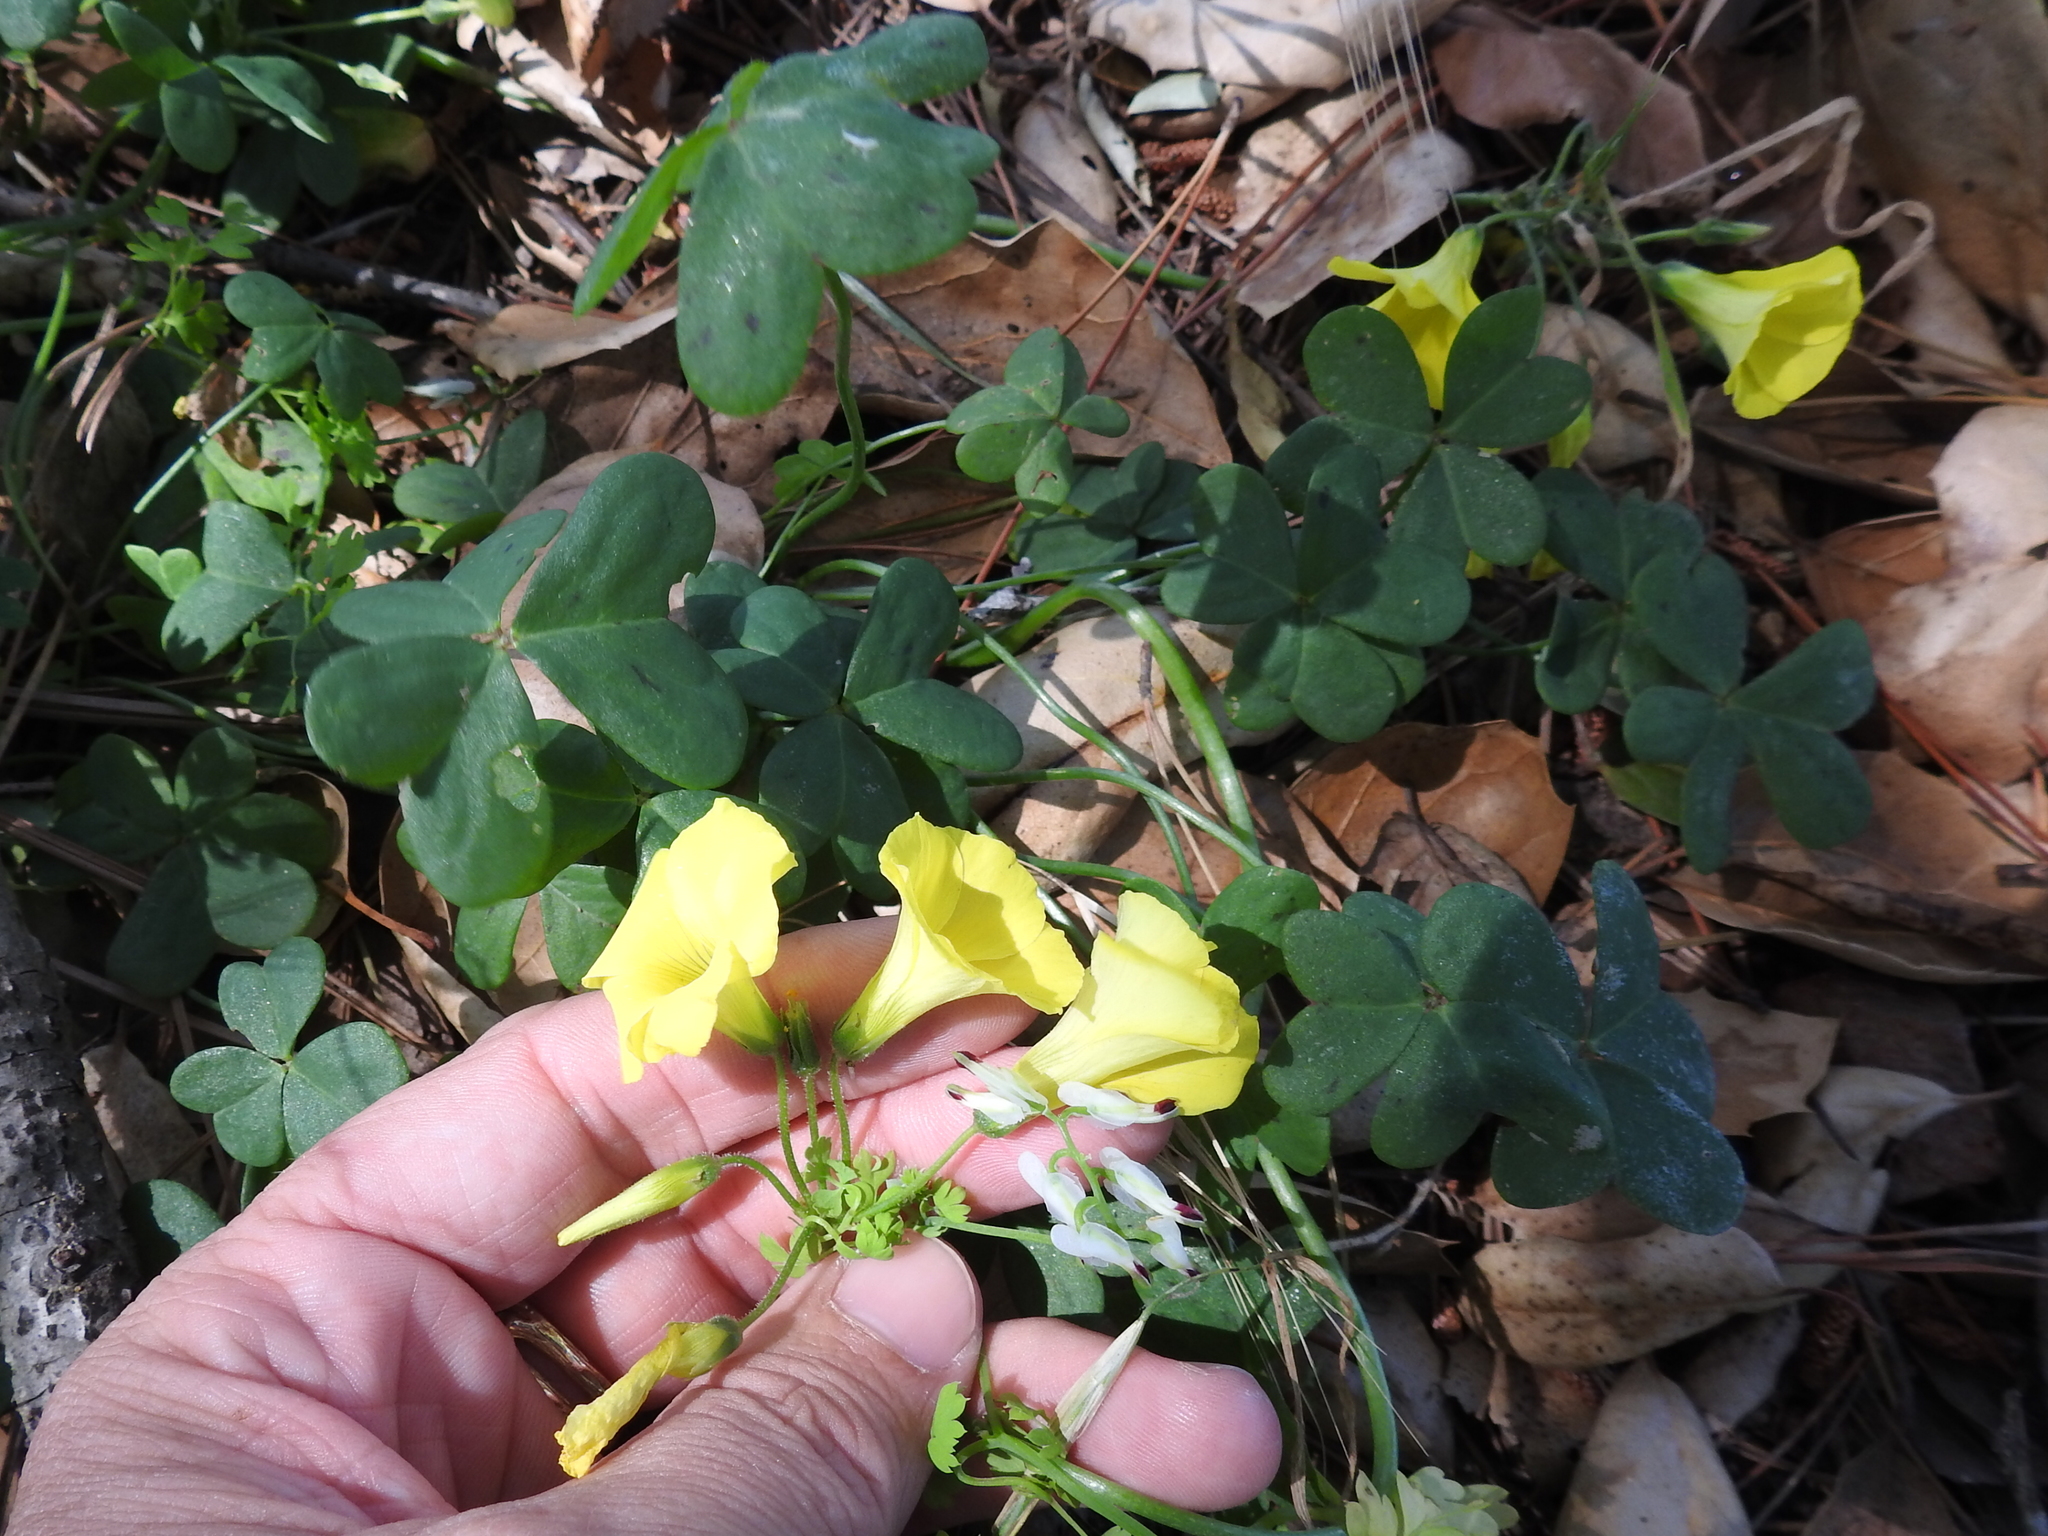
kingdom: Plantae
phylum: Tracheophyta
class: Magnoliopsida
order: Oxalidales
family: Oxalidaceae
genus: Oxalis
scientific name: Oxalis pes-caprae
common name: Bermuda-buttercup
